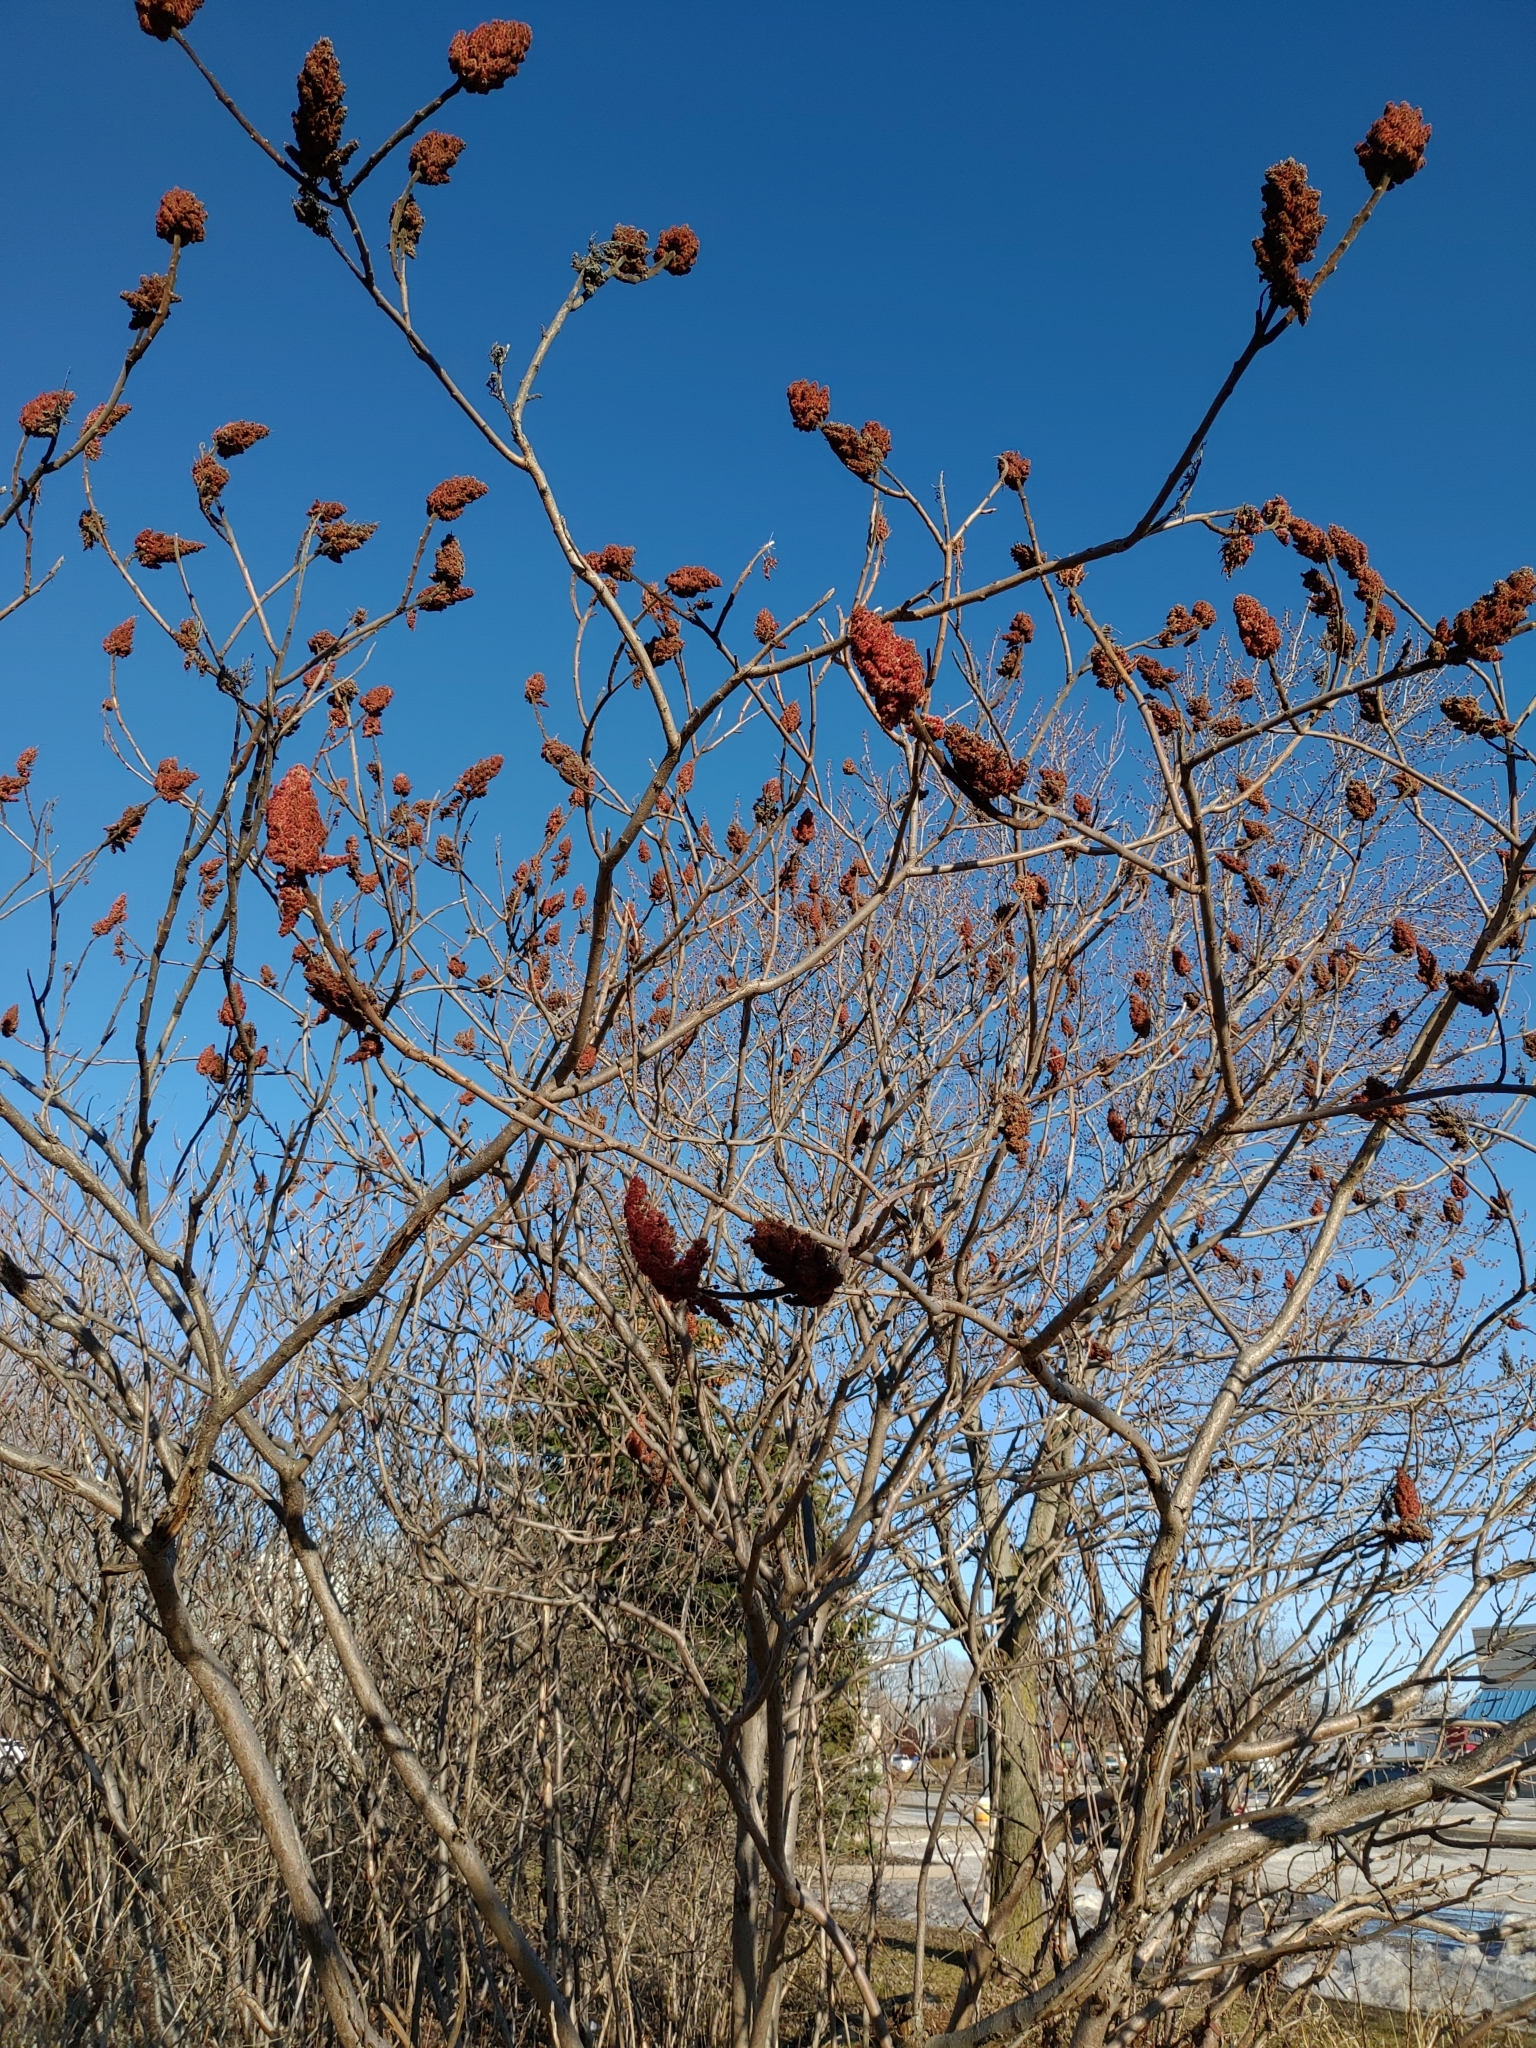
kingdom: Plantae
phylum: Tracheophyta
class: Magnoliopsida
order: Sapindales
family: Anacardiaceae
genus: Rhus
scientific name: Rhus typhina
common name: Staghorn sumac
